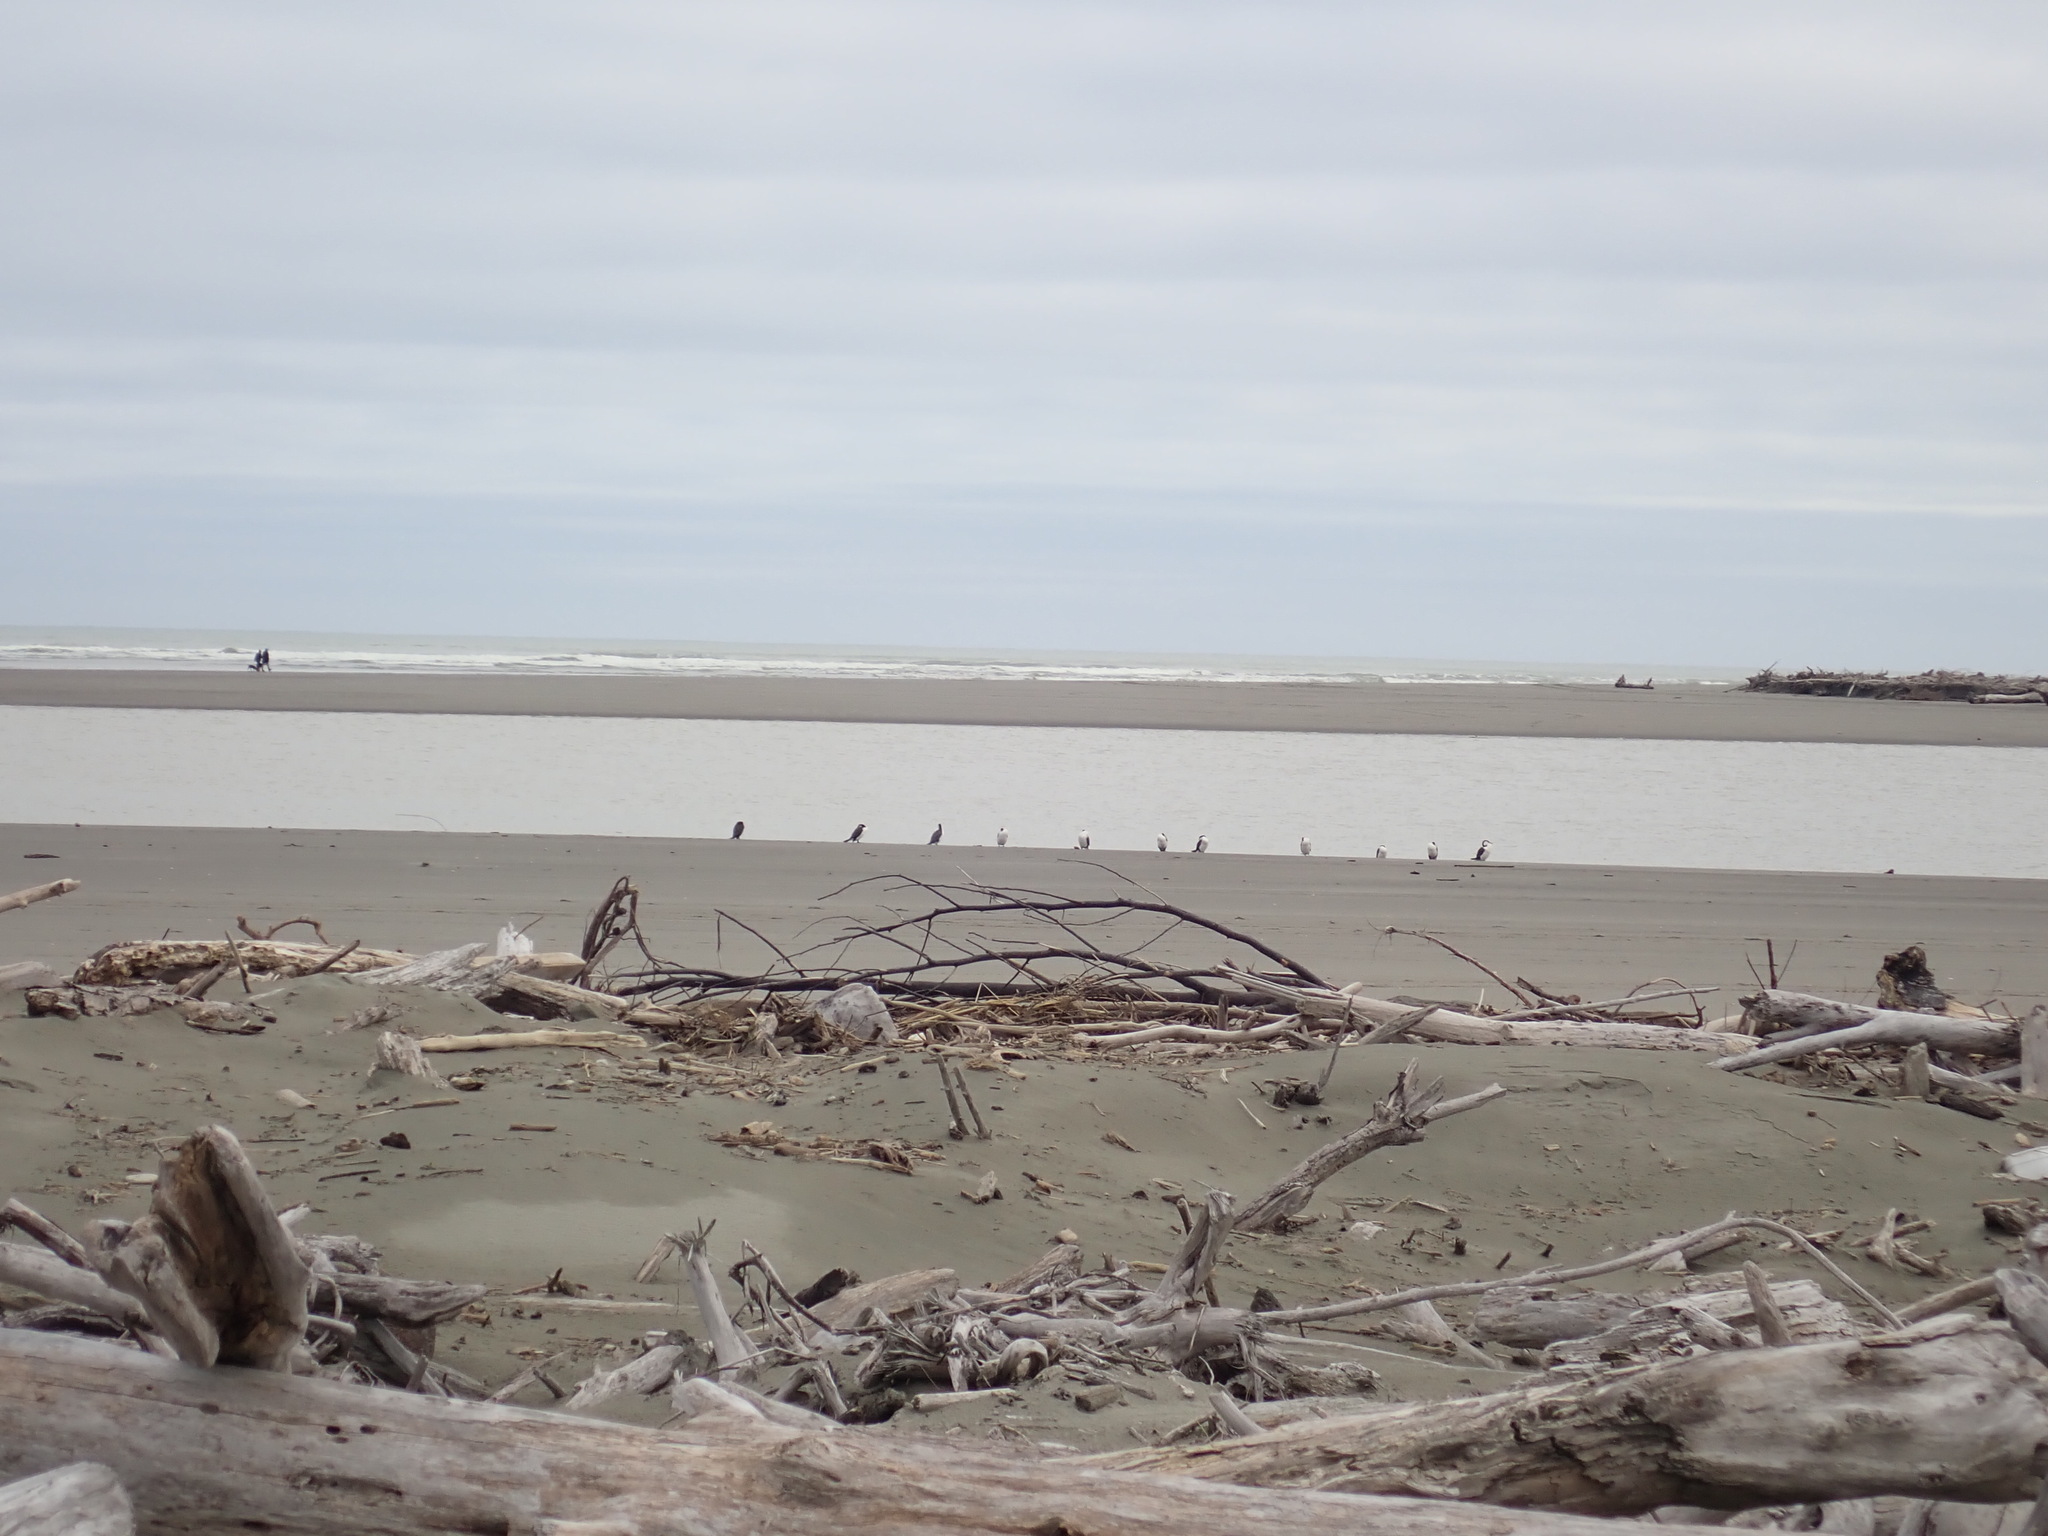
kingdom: Animalia
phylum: Chordata
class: Aves
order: Suliformes
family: Phalacrocoracidae
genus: Phalacrocorax
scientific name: Phalacrocorax varius
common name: Pied cormorant
